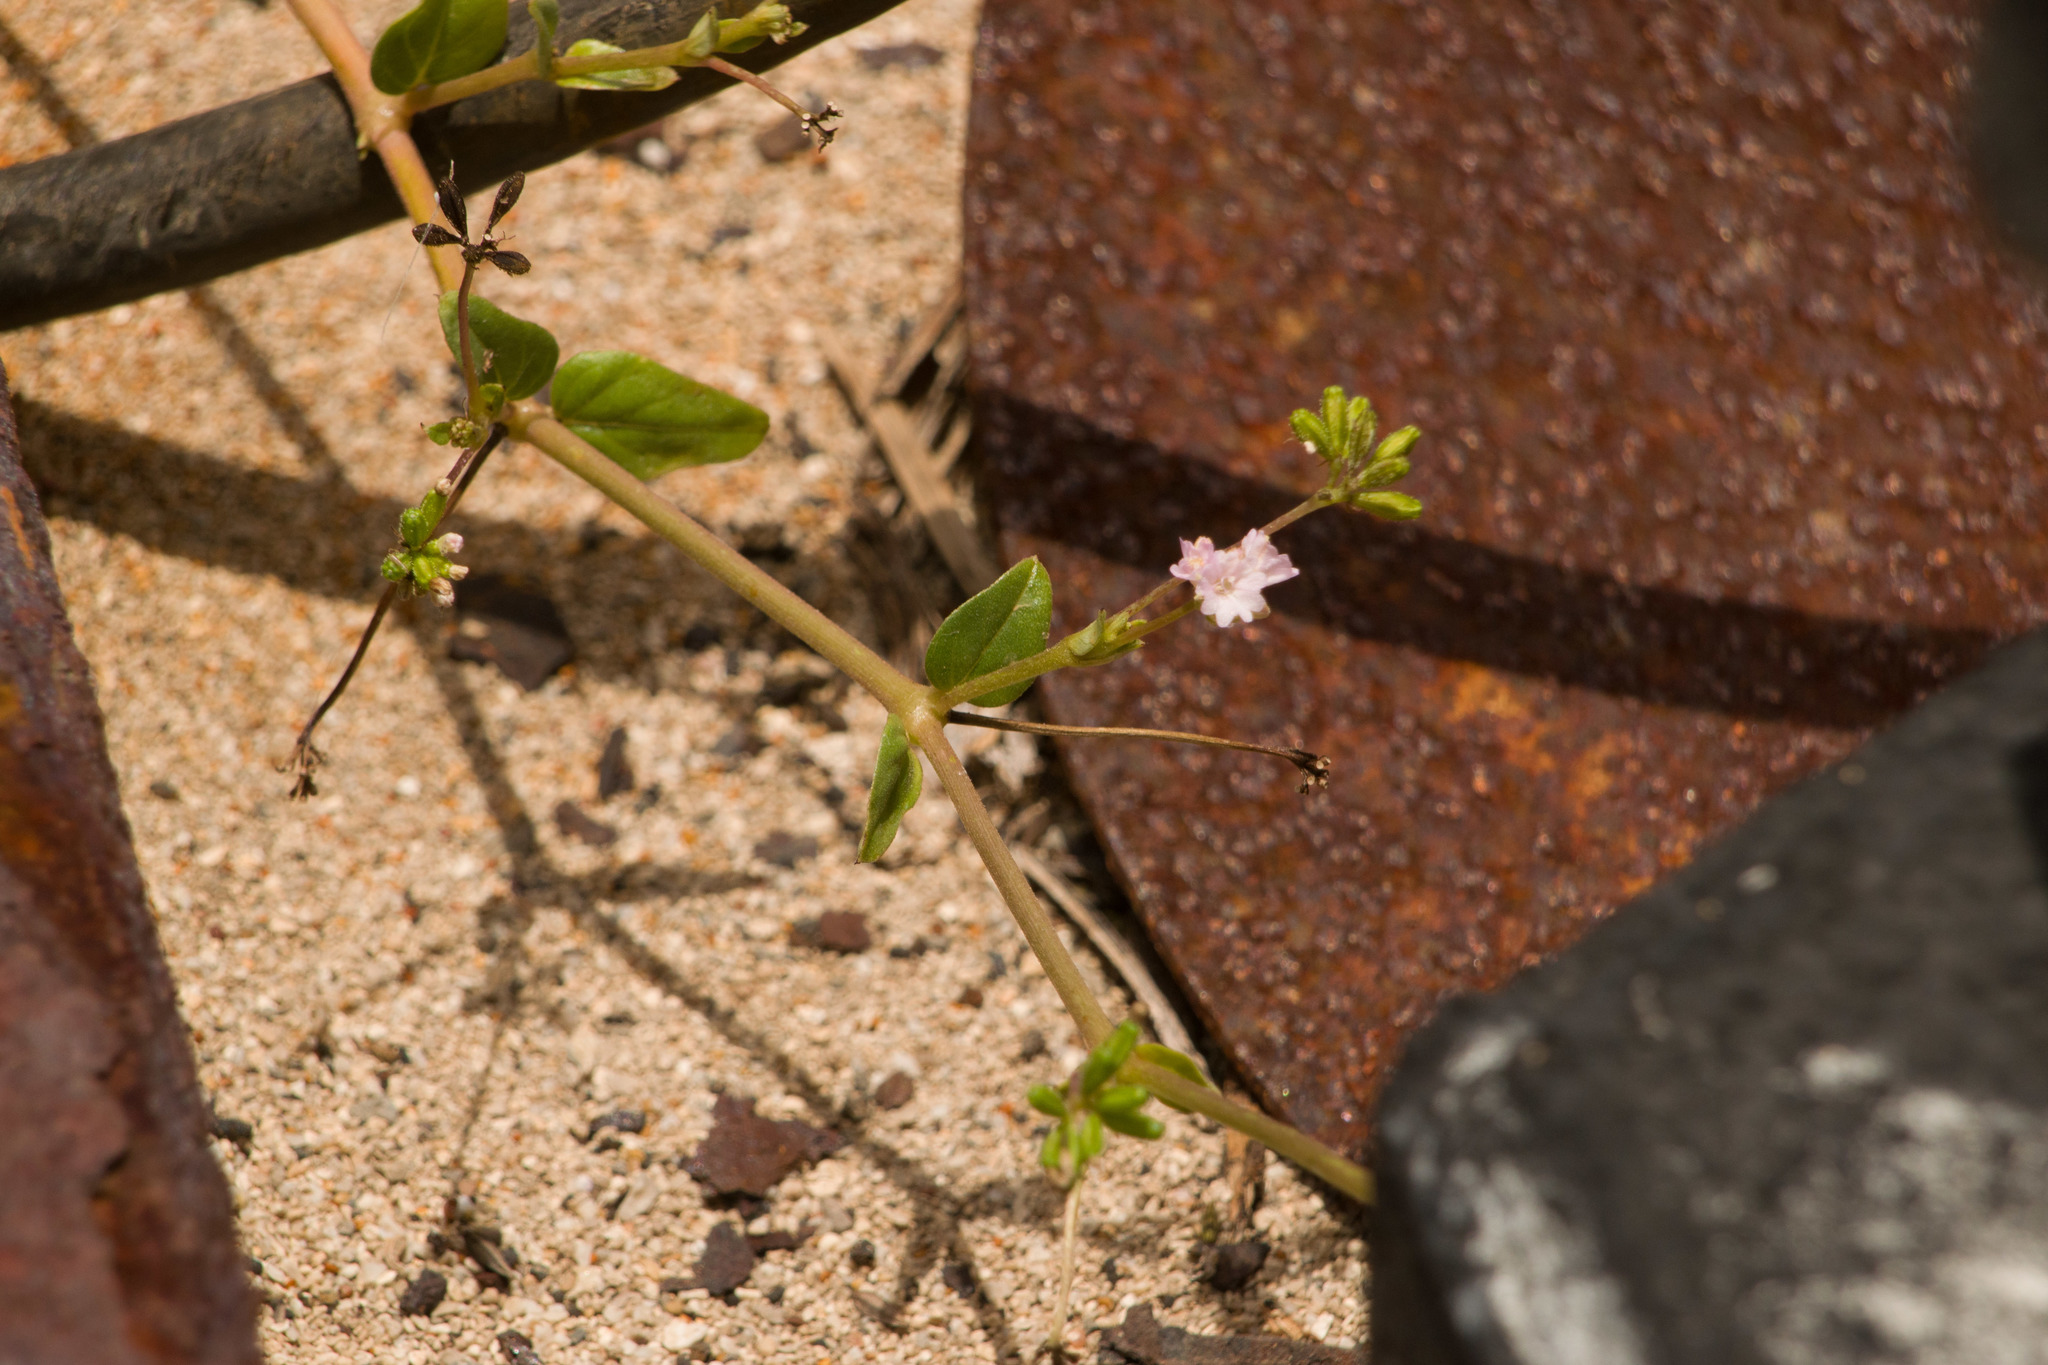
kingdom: Plantae
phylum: Tracheophyta
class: Magnoliopsida
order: Caryophyllales
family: Nyctaginaceae
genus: Boerhavia
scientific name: Boerhavia repens
